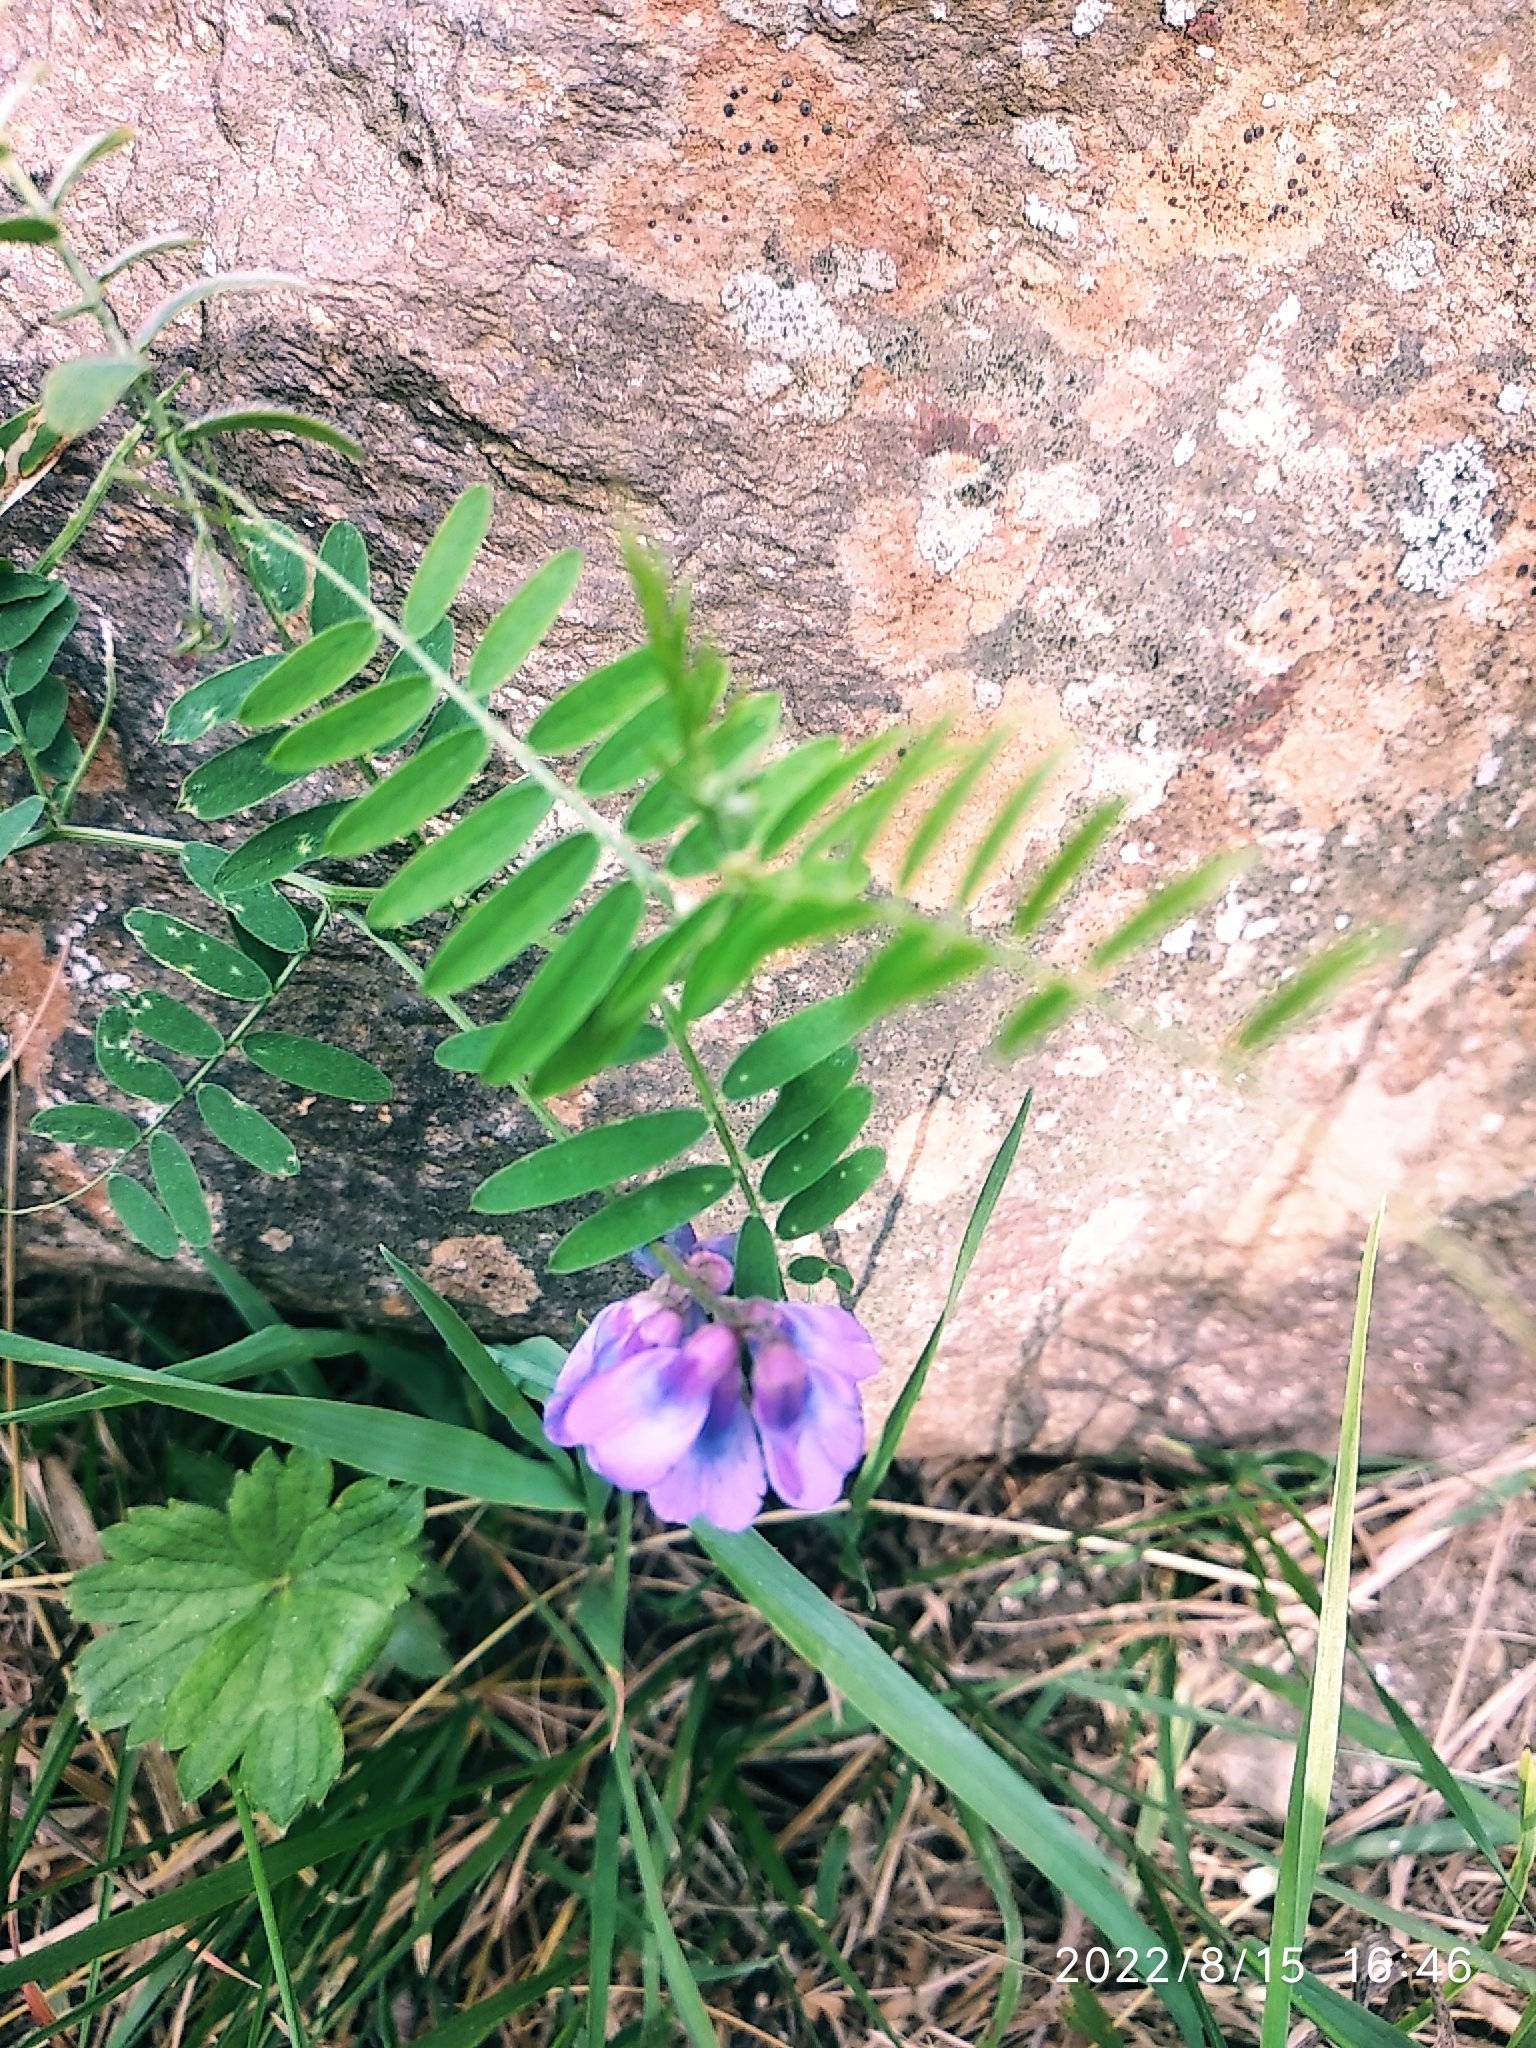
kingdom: Plantae
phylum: Tracheophyta
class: Magnoliopsida
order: Fabales
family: Fabaceae
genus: Vicia
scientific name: Vicia cracca
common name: Bird vetch
